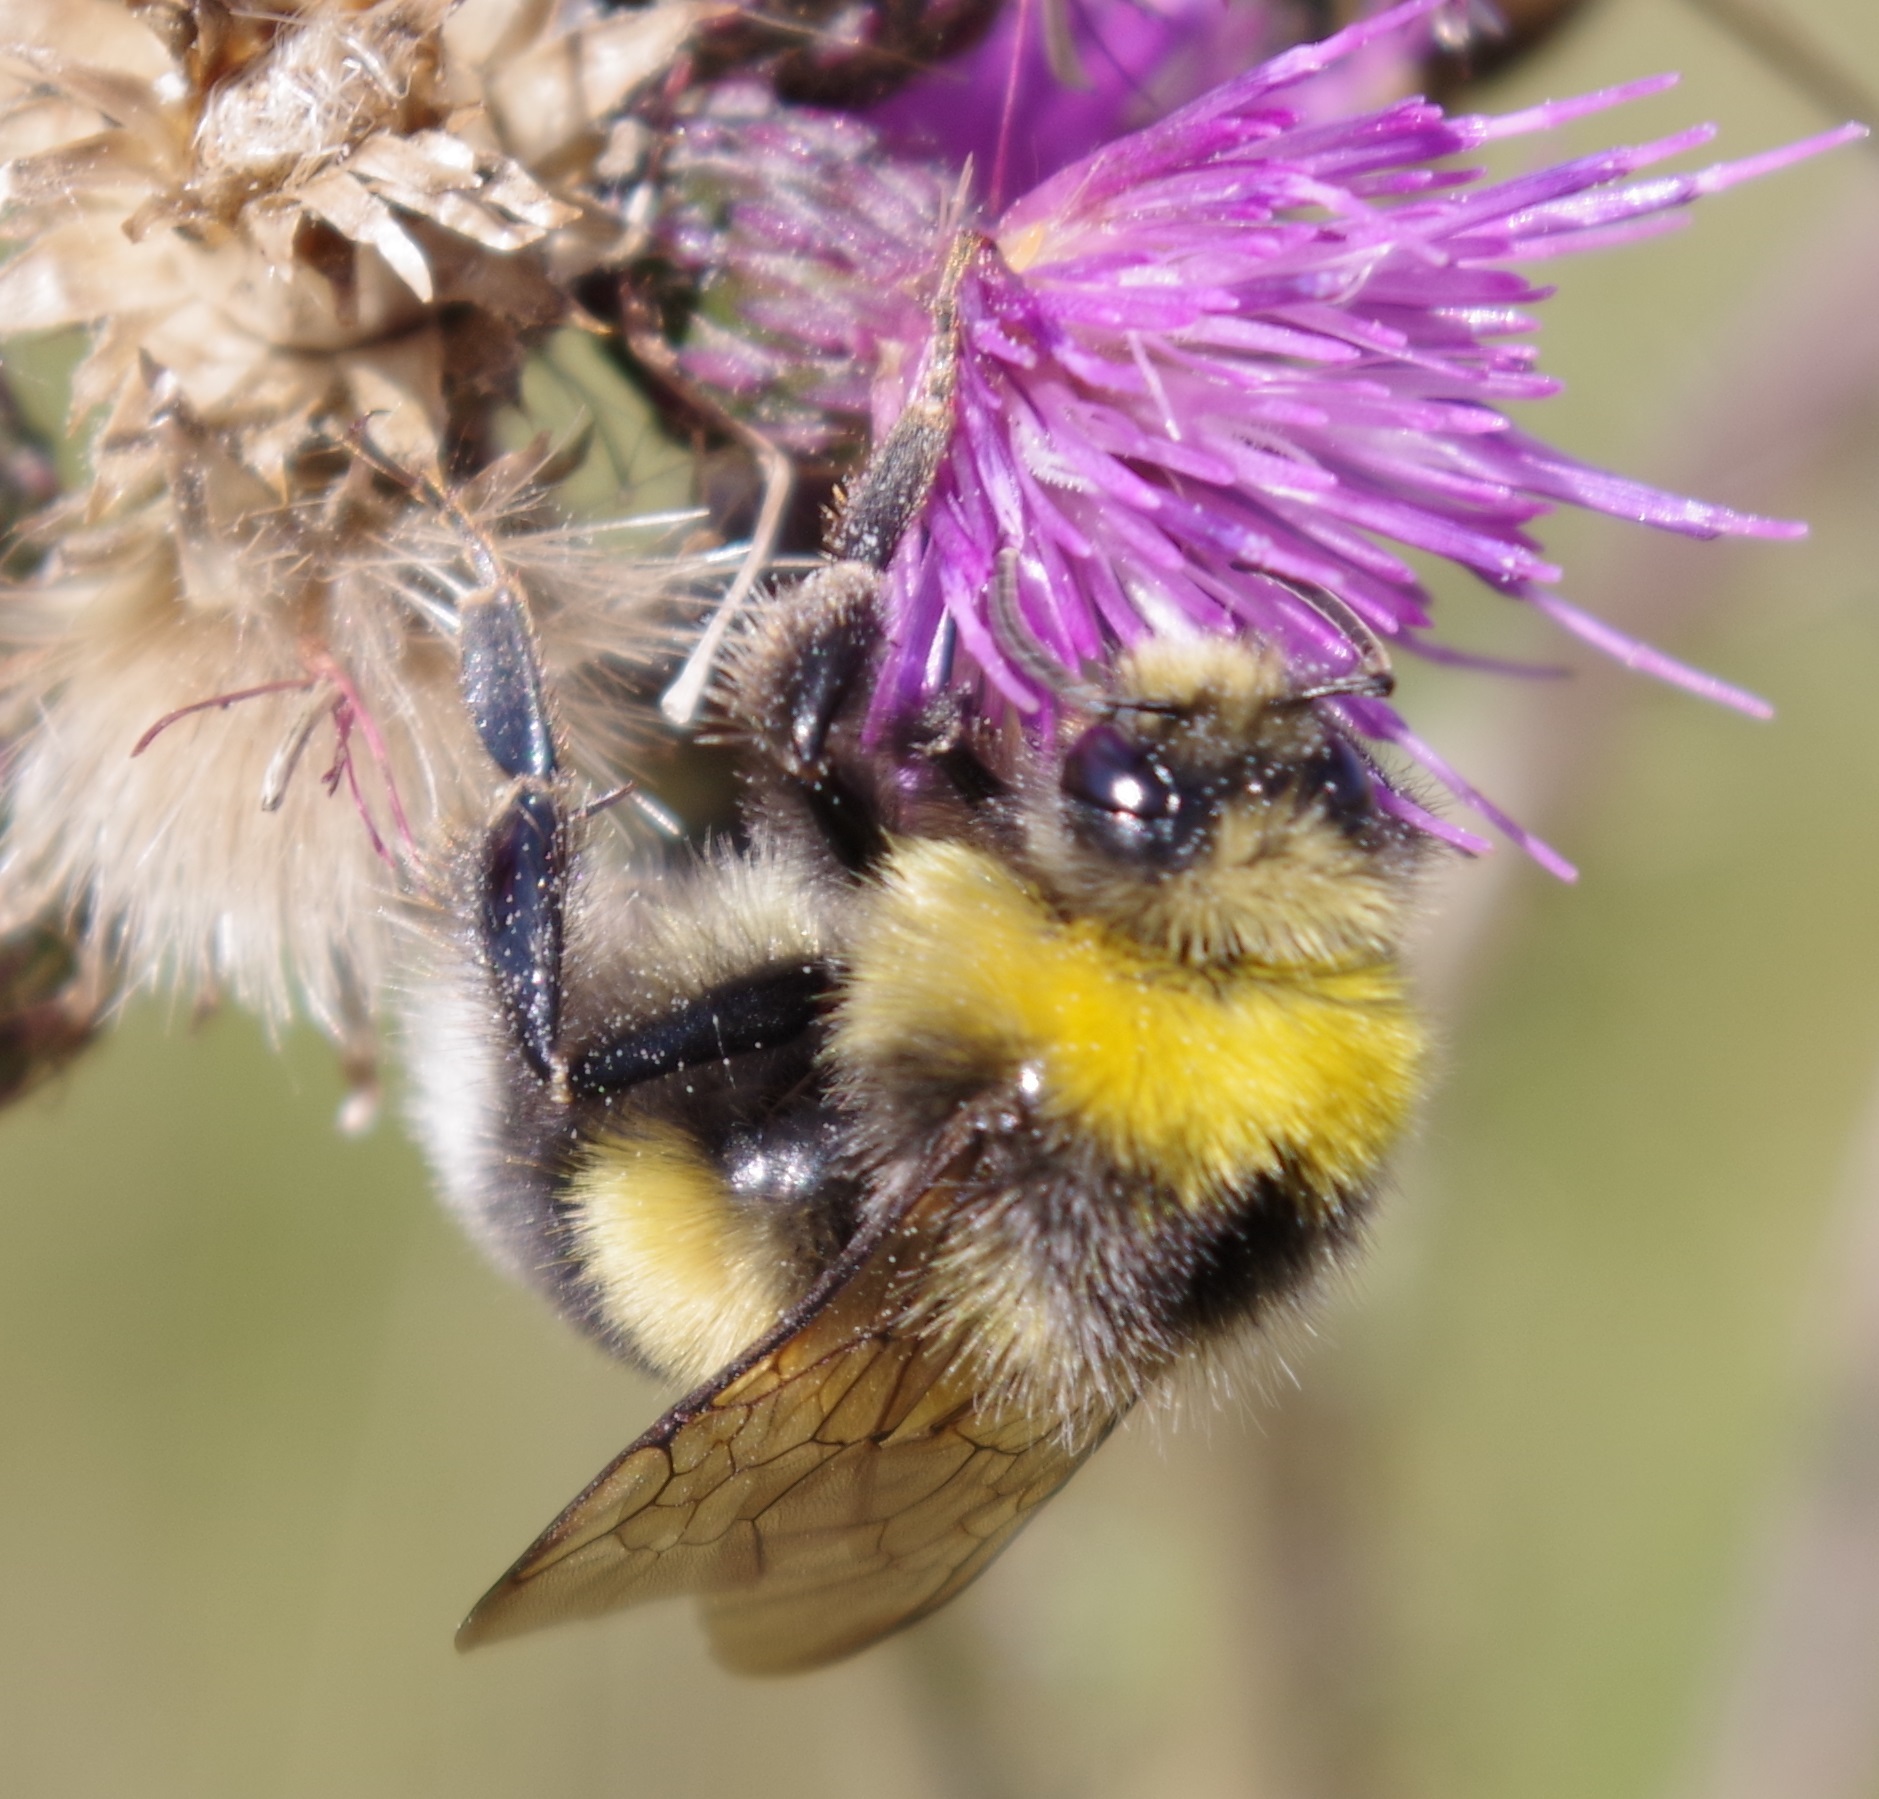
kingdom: Animalia
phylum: Arthropoda
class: Insecta
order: Hymenoptera
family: Apidae
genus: Bombus
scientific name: Bombus lucorum
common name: White-tailed bumblebee
